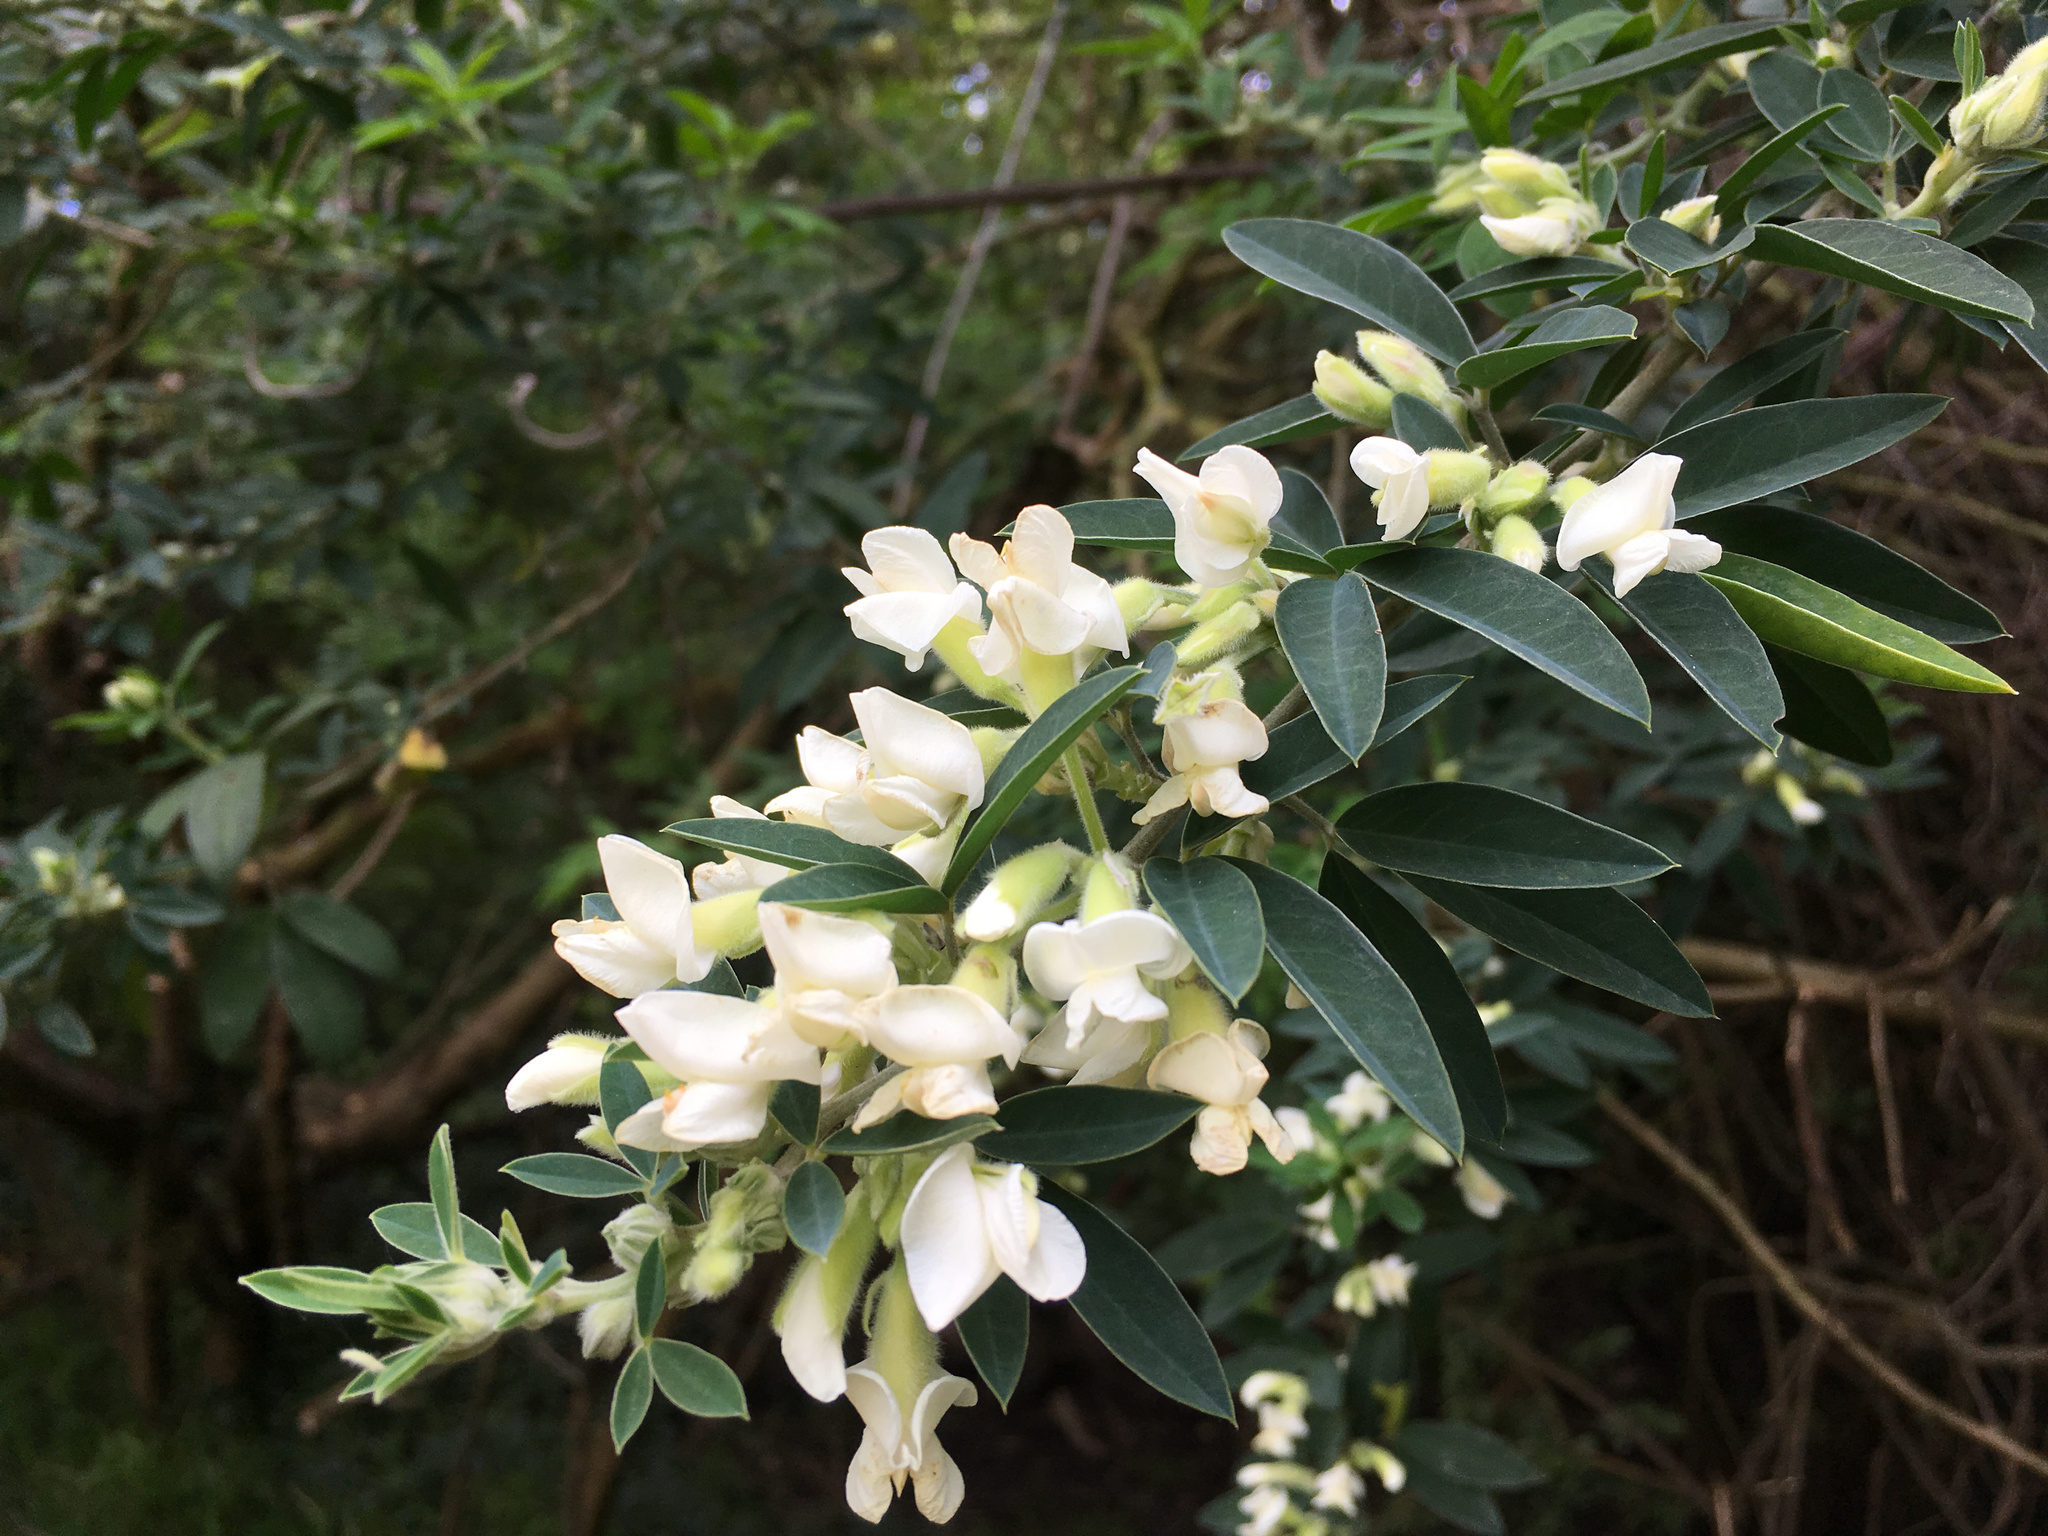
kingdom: Plantae
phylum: Tracheophyta
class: Magnoliopsida
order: Fabales
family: Fabaceae
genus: Chamaecytisus
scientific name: Chamaecytisus prolifer
